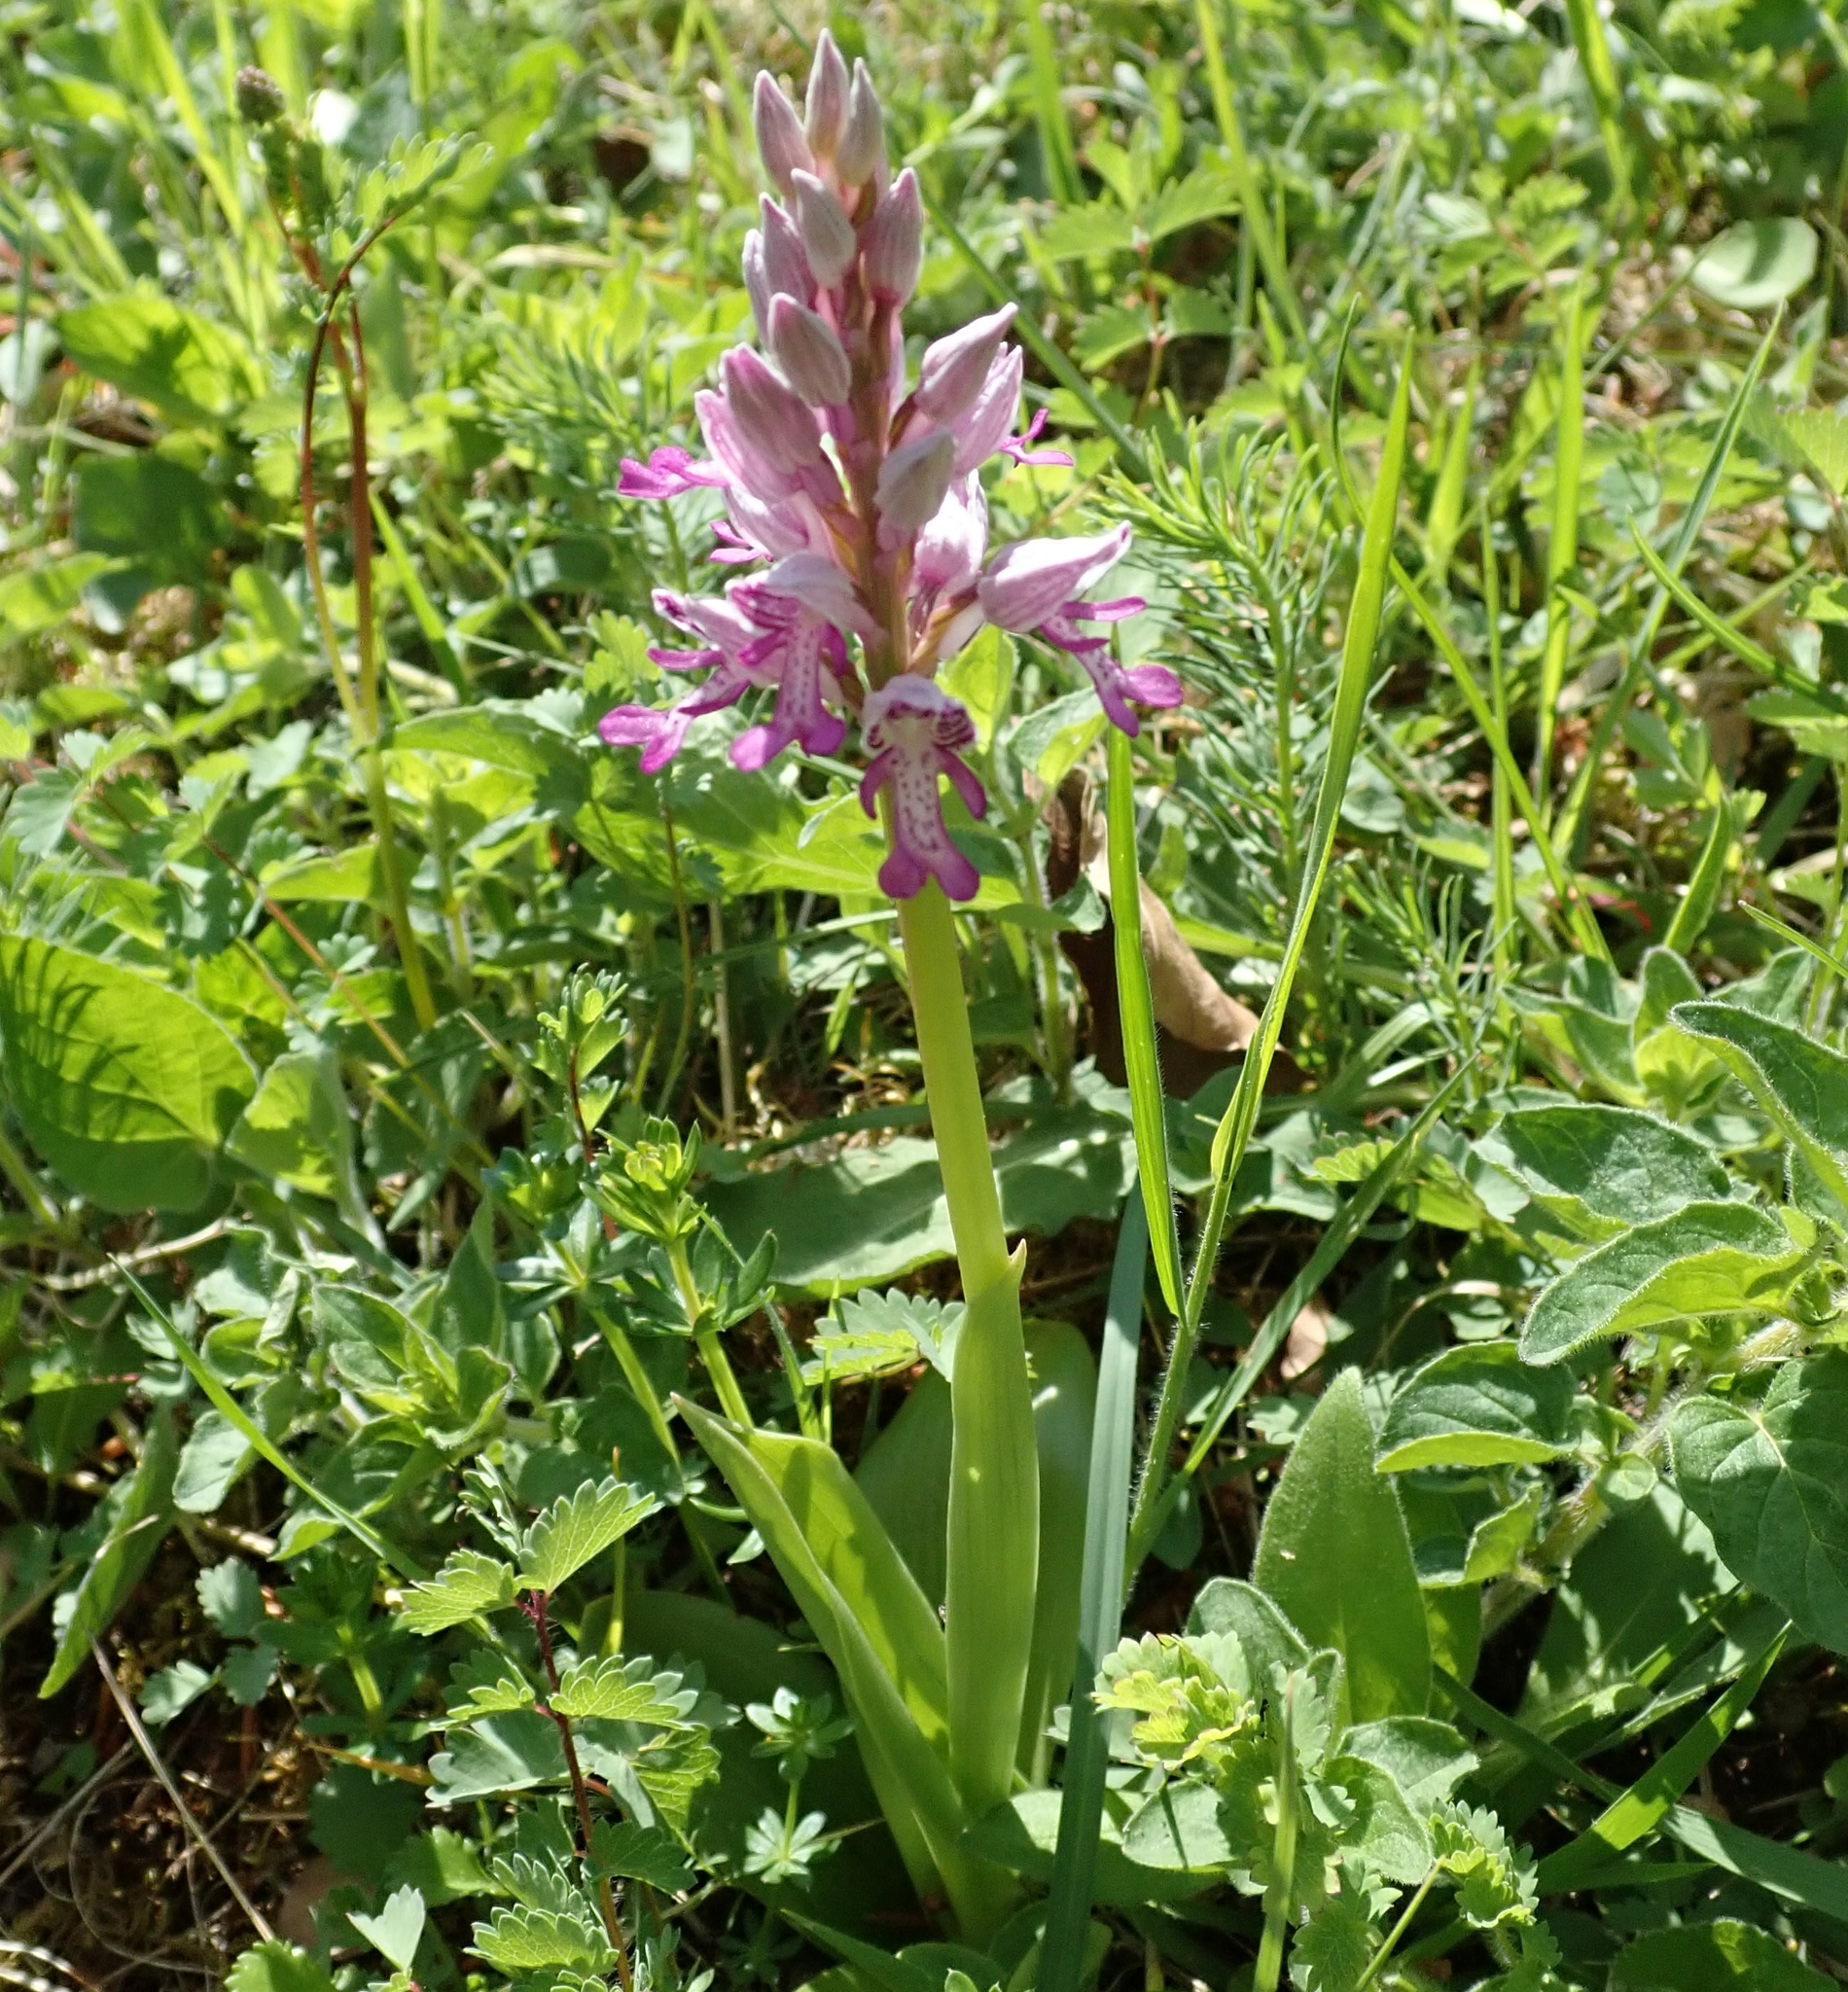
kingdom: Plantae
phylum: Tracheophyta
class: Liliopsida
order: Asparagales
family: Orchidaceae
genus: Orchis
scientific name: Orchis militaris
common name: Military orchid
